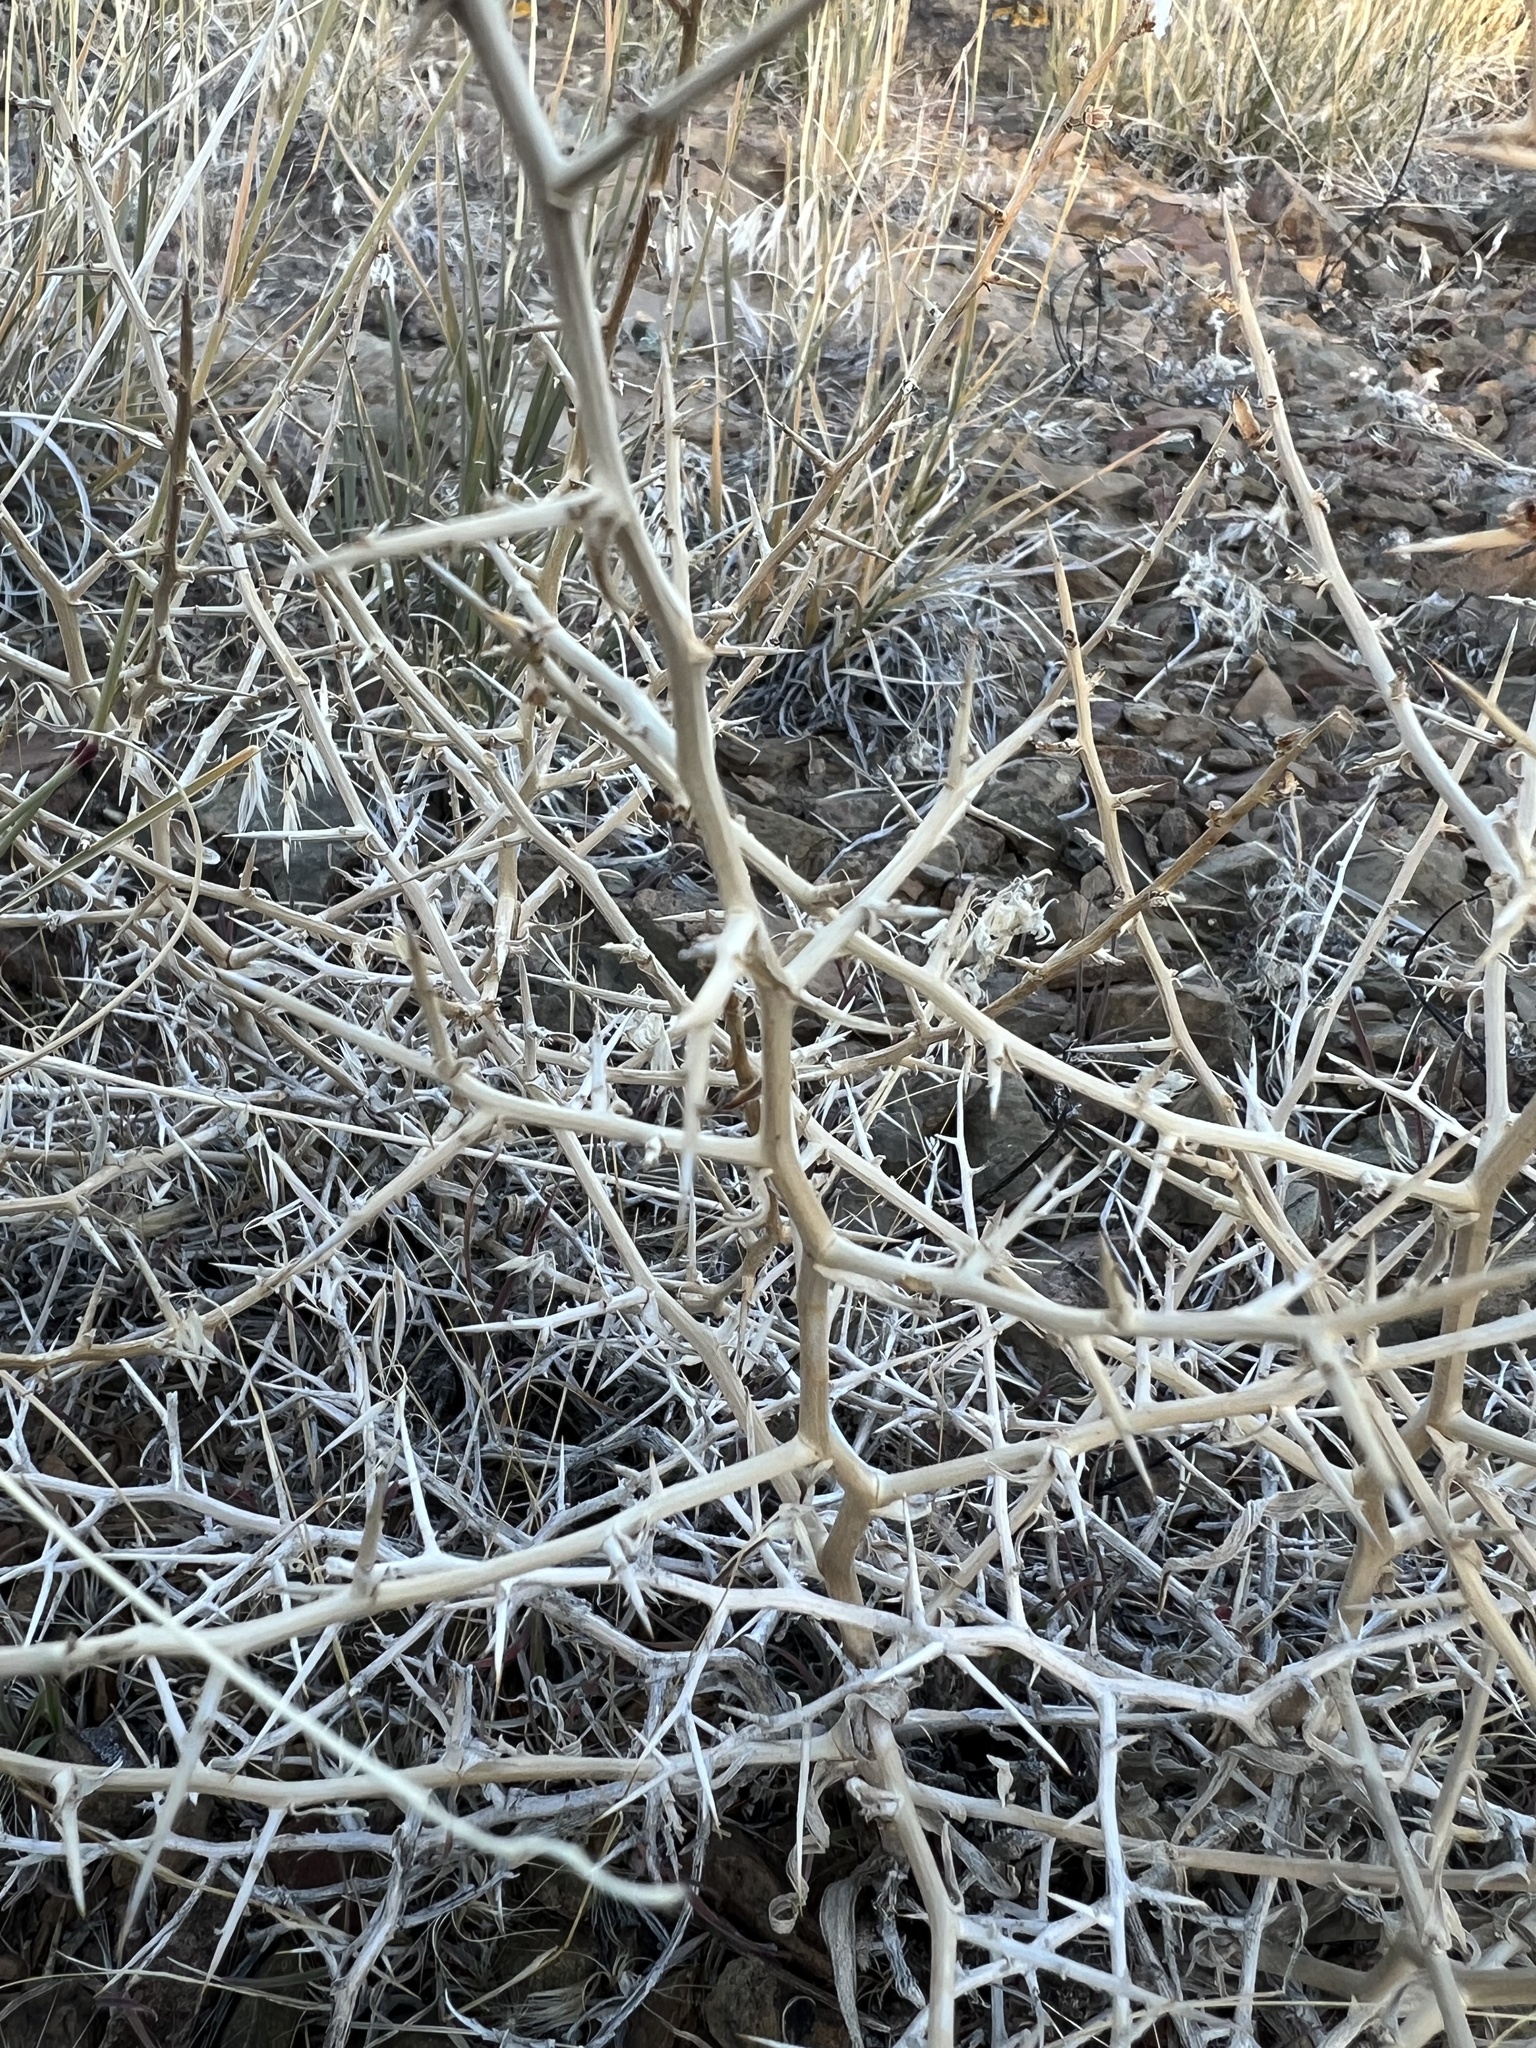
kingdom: Plantae
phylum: Tracheophyta
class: Magnoliopsida
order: Asterales
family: Asteraceae
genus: Pleiacanthus
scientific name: Pleiacanthus spinosus
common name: Thorny skeleton-weed
